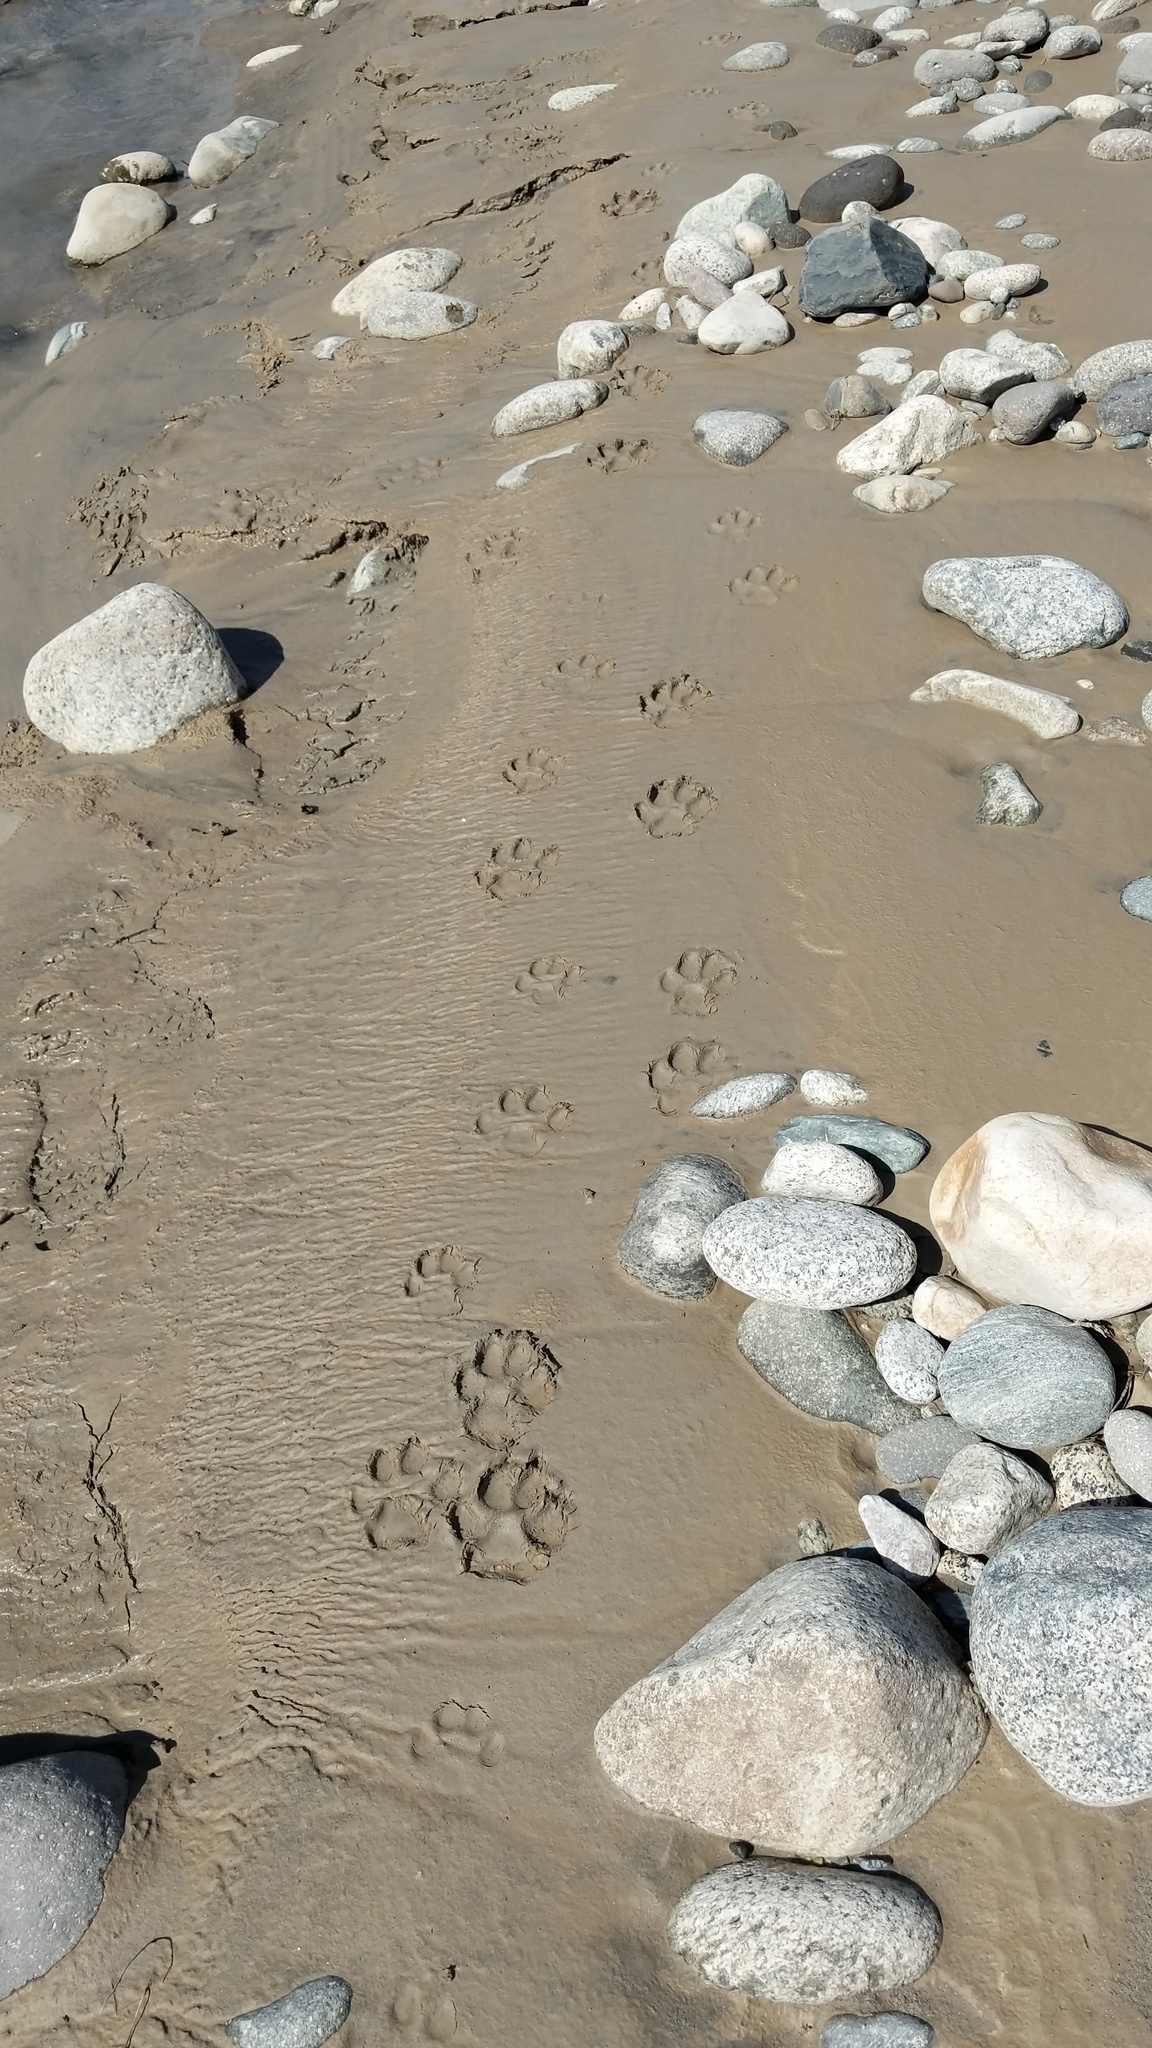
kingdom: Animalia
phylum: Chordata
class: Mammalia
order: Carnivora
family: Canidae
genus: Canis
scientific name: Canis lupus
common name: Gray wolf
